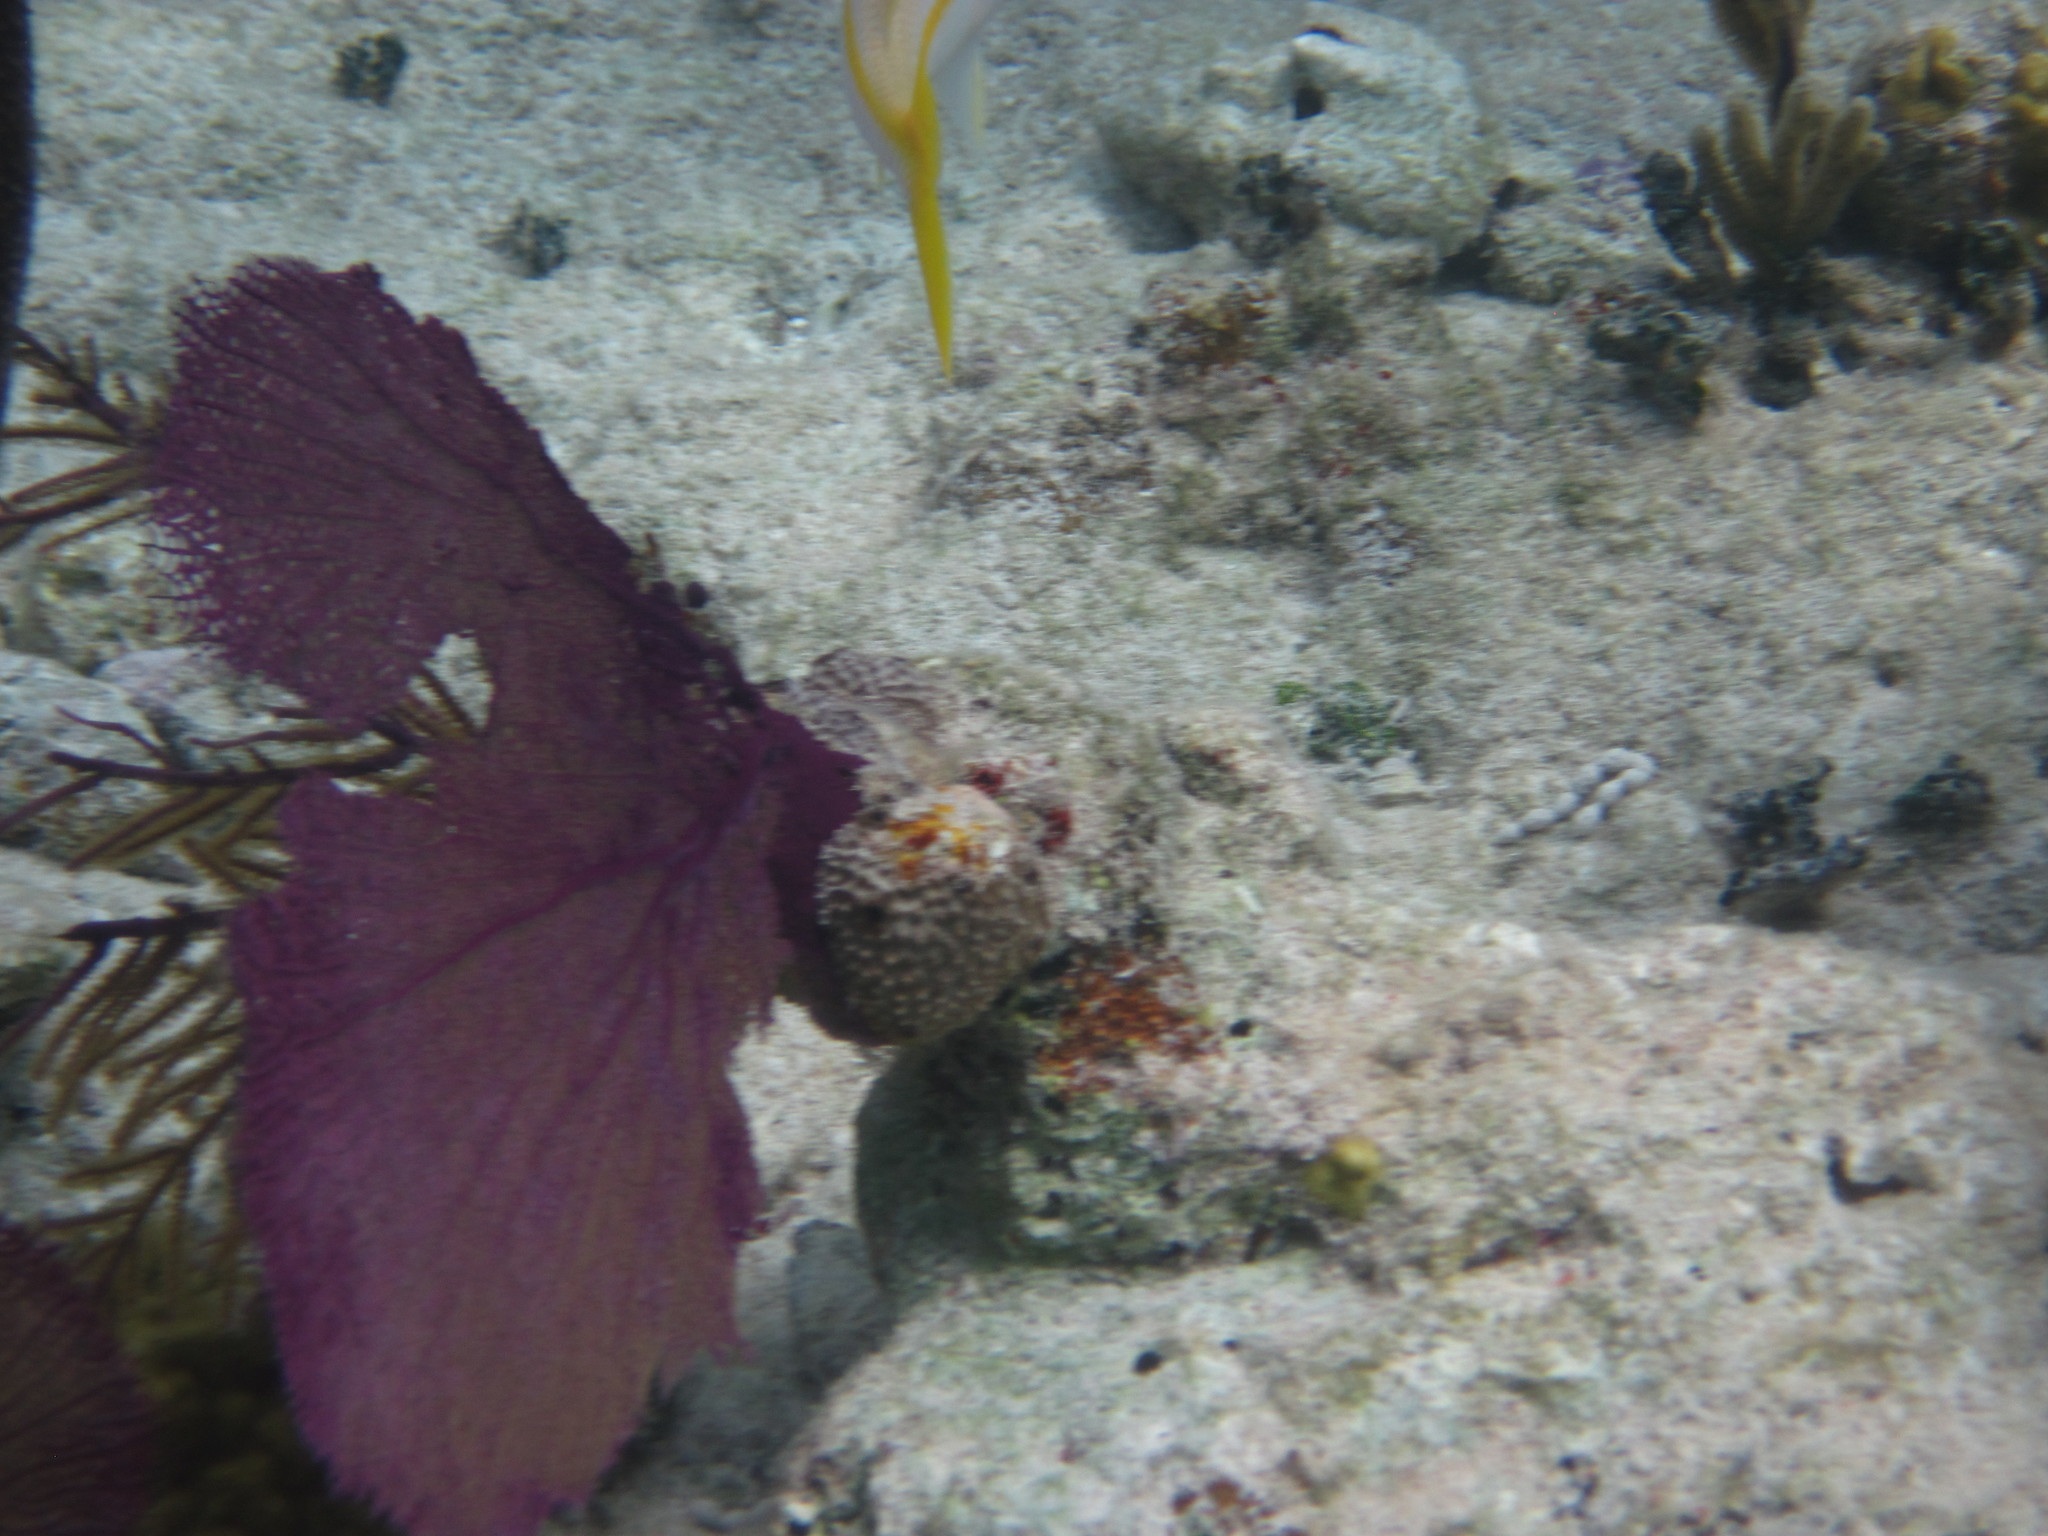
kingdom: Animalia
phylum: Cnidaria
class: Anthozoa
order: Malacalcyonacea
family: Gorgoniidae
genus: Gorgonia
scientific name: Gorgonia ventalina
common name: Common sea fan
